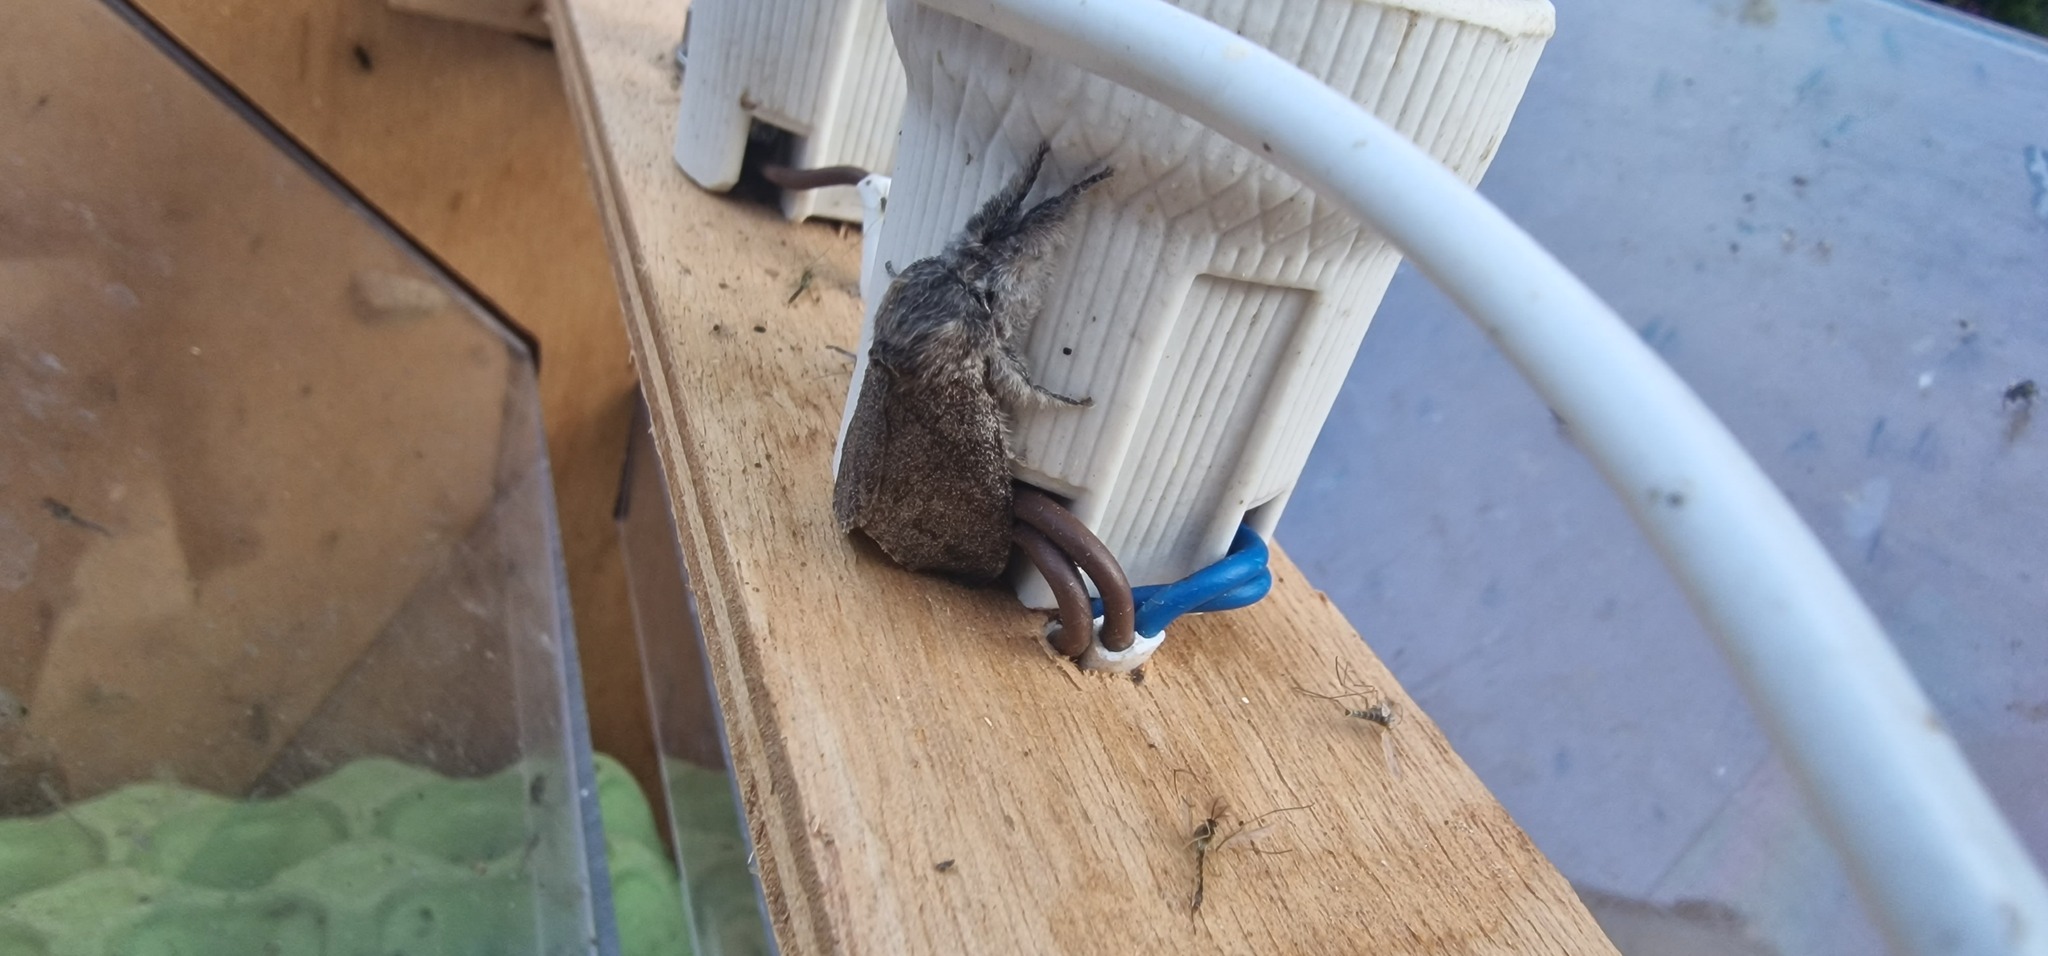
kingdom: Animalia
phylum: Arthropoda
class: Insecta
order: Lepidoptera
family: Erebidae
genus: Calliteara
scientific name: Calliteara pudibunda
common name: Pale tussock
